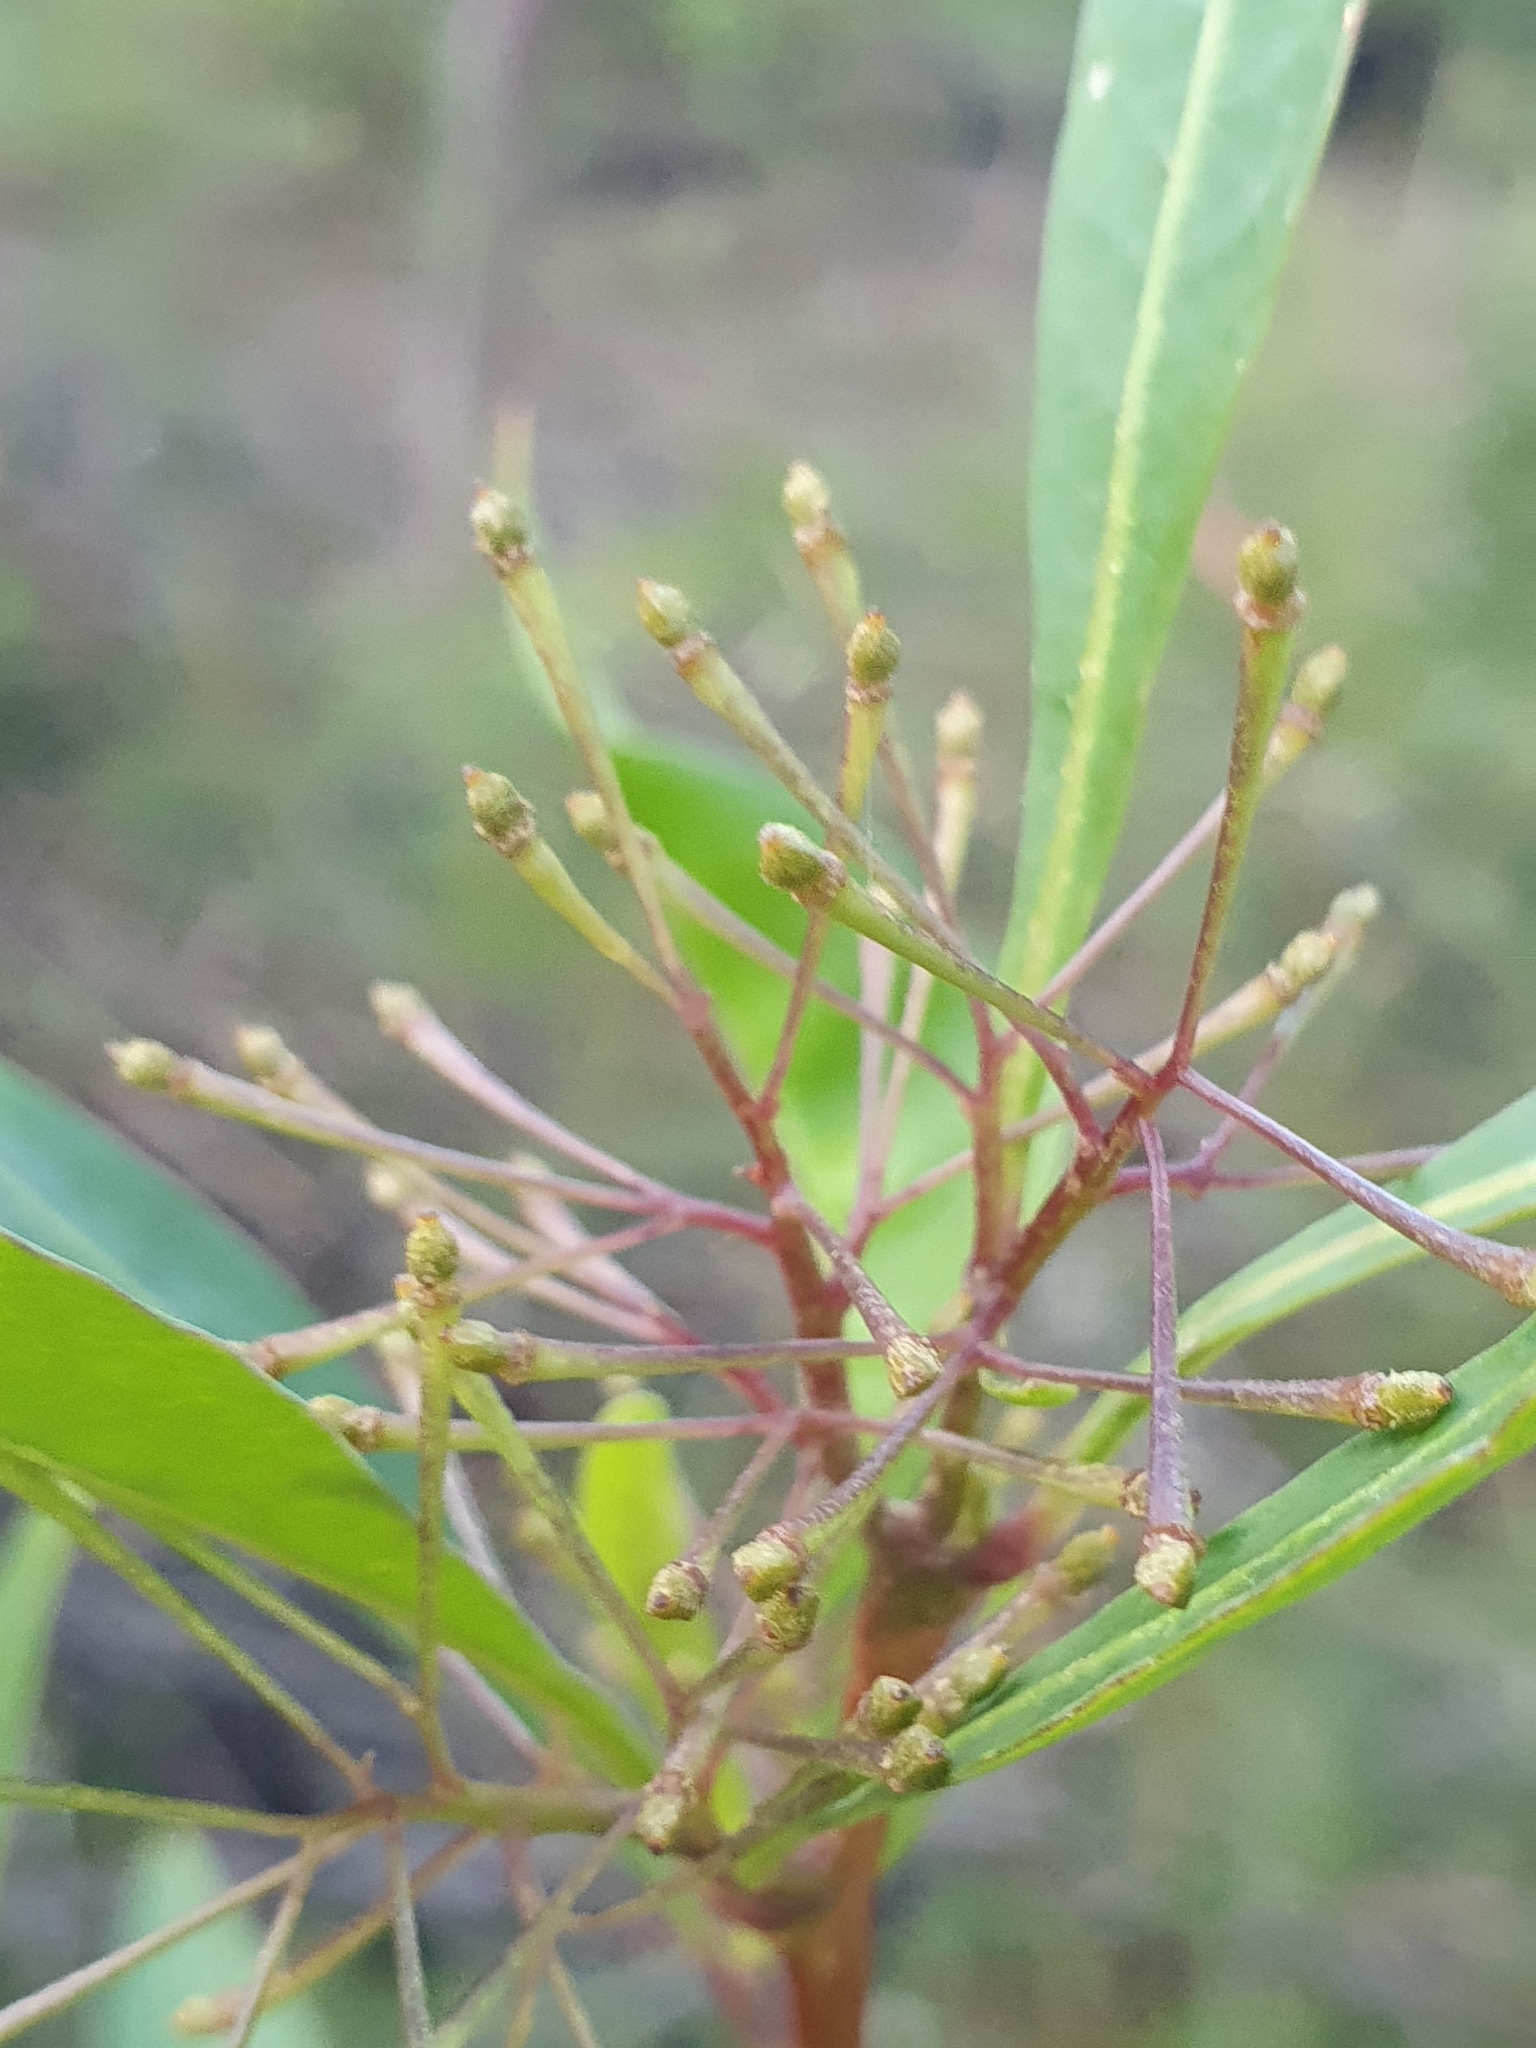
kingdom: Plantae
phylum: Tracheophyta
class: Magnoliopsida
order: Sapindales
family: Sapindaceae
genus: Dodonaea
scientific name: Dodonaea triquetra
